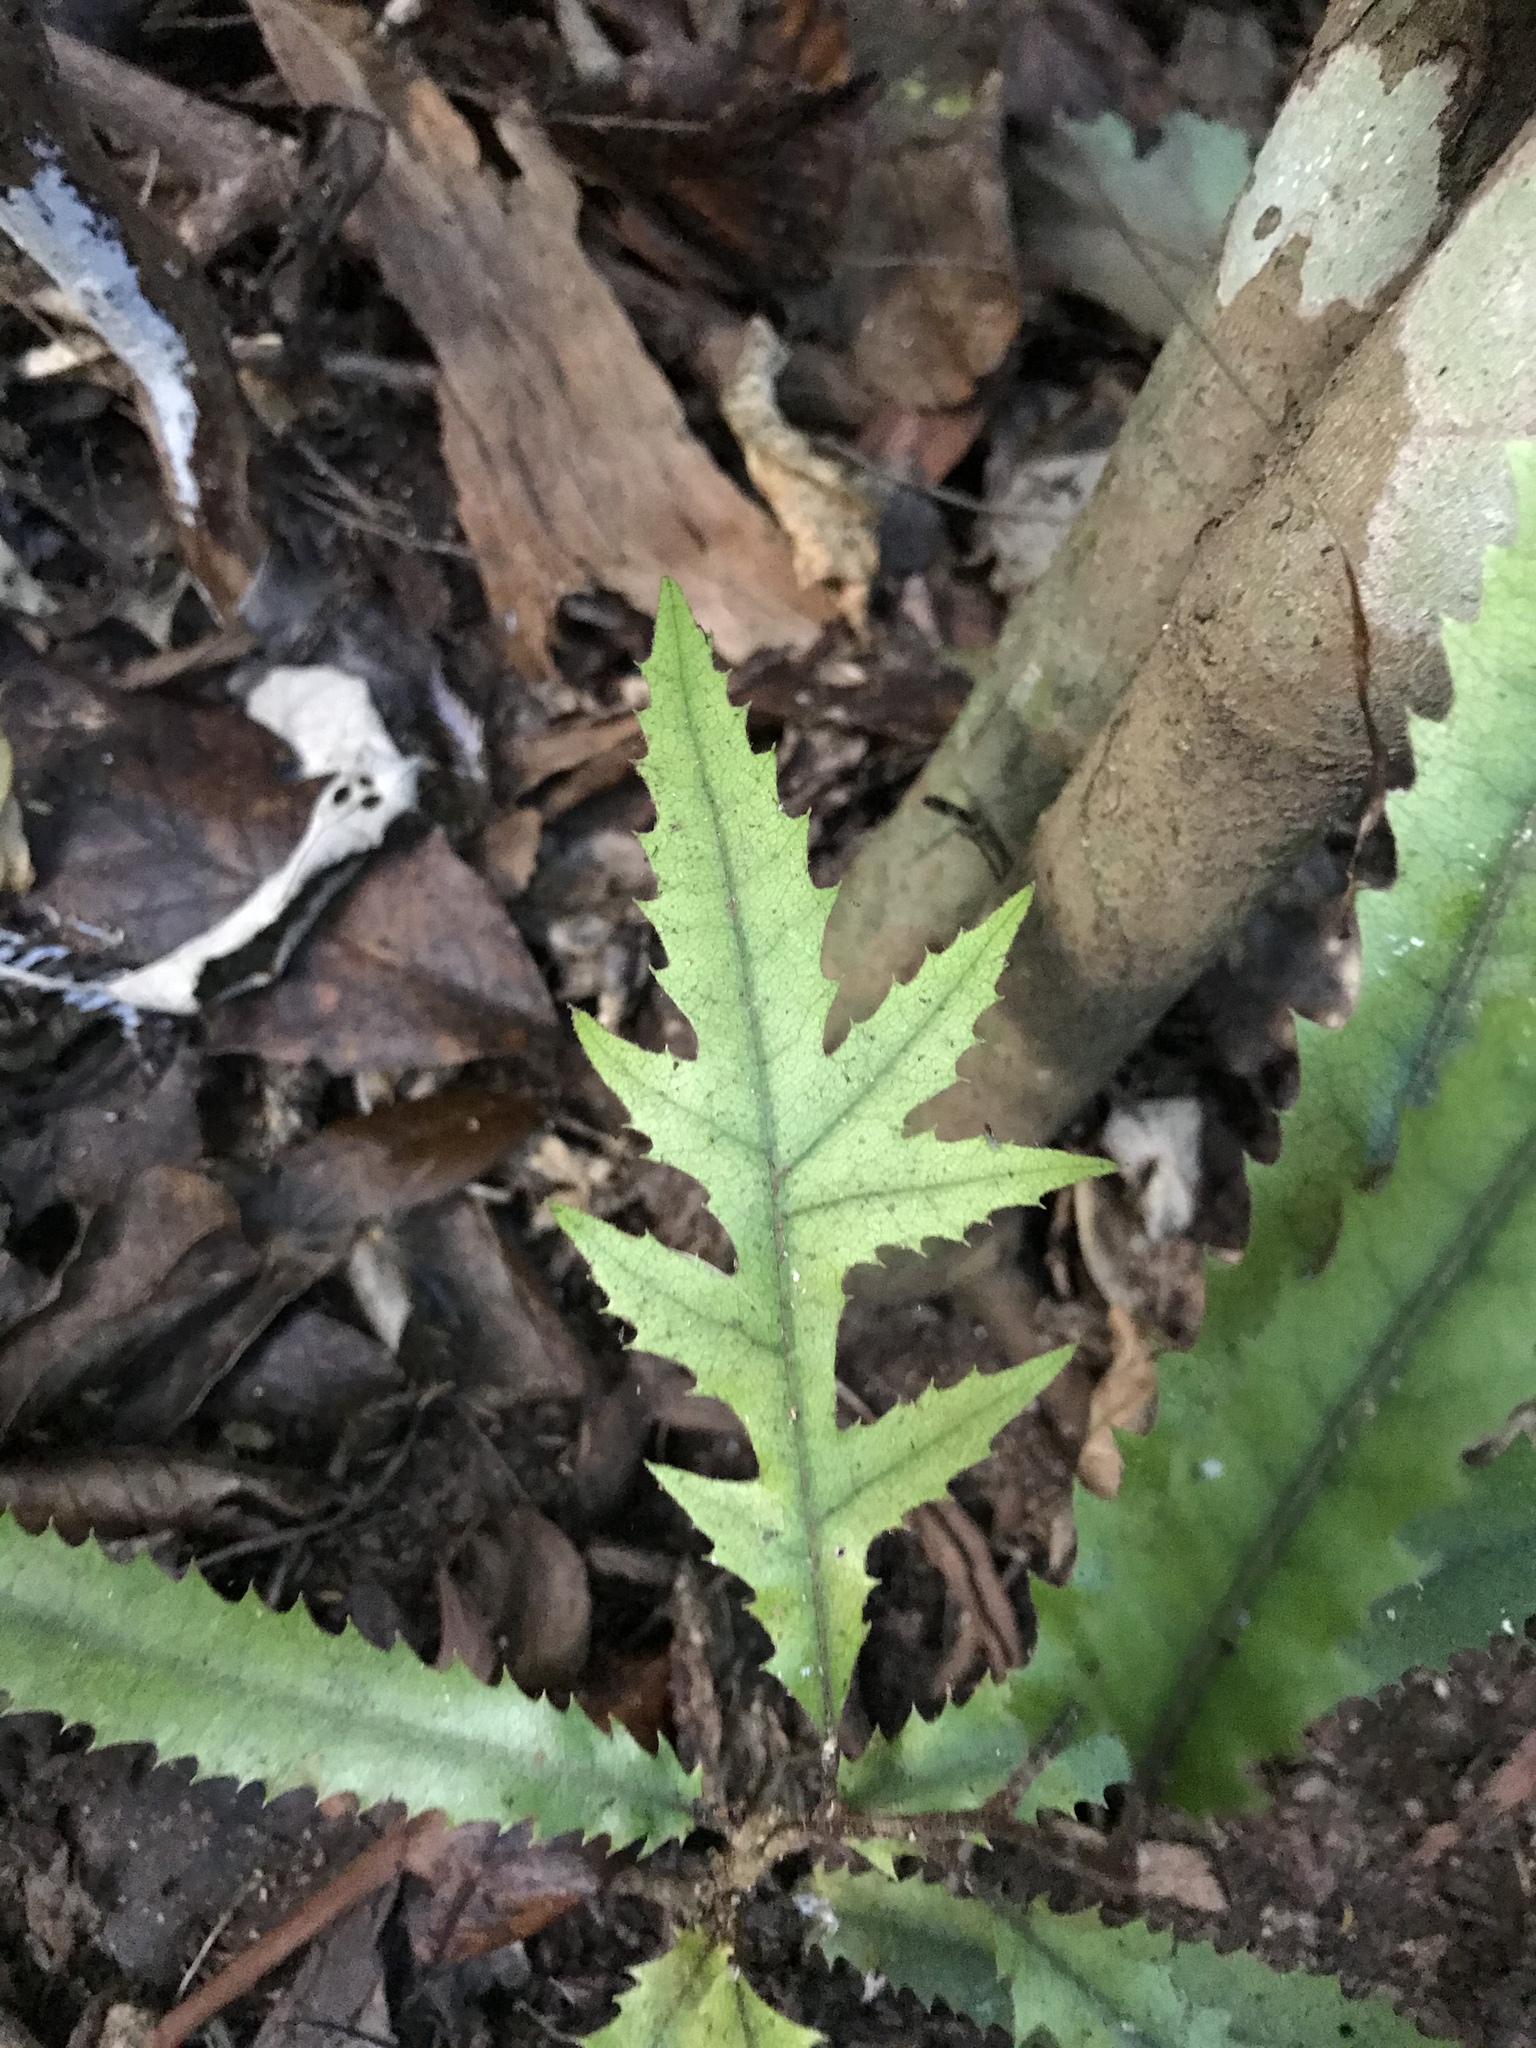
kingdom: Plantae
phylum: Tracheophyta
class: Magnoliopsida
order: Proteales
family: Proteaceae
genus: Knightia
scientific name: Knightia excelsa
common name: New zealand-honeysuckle
